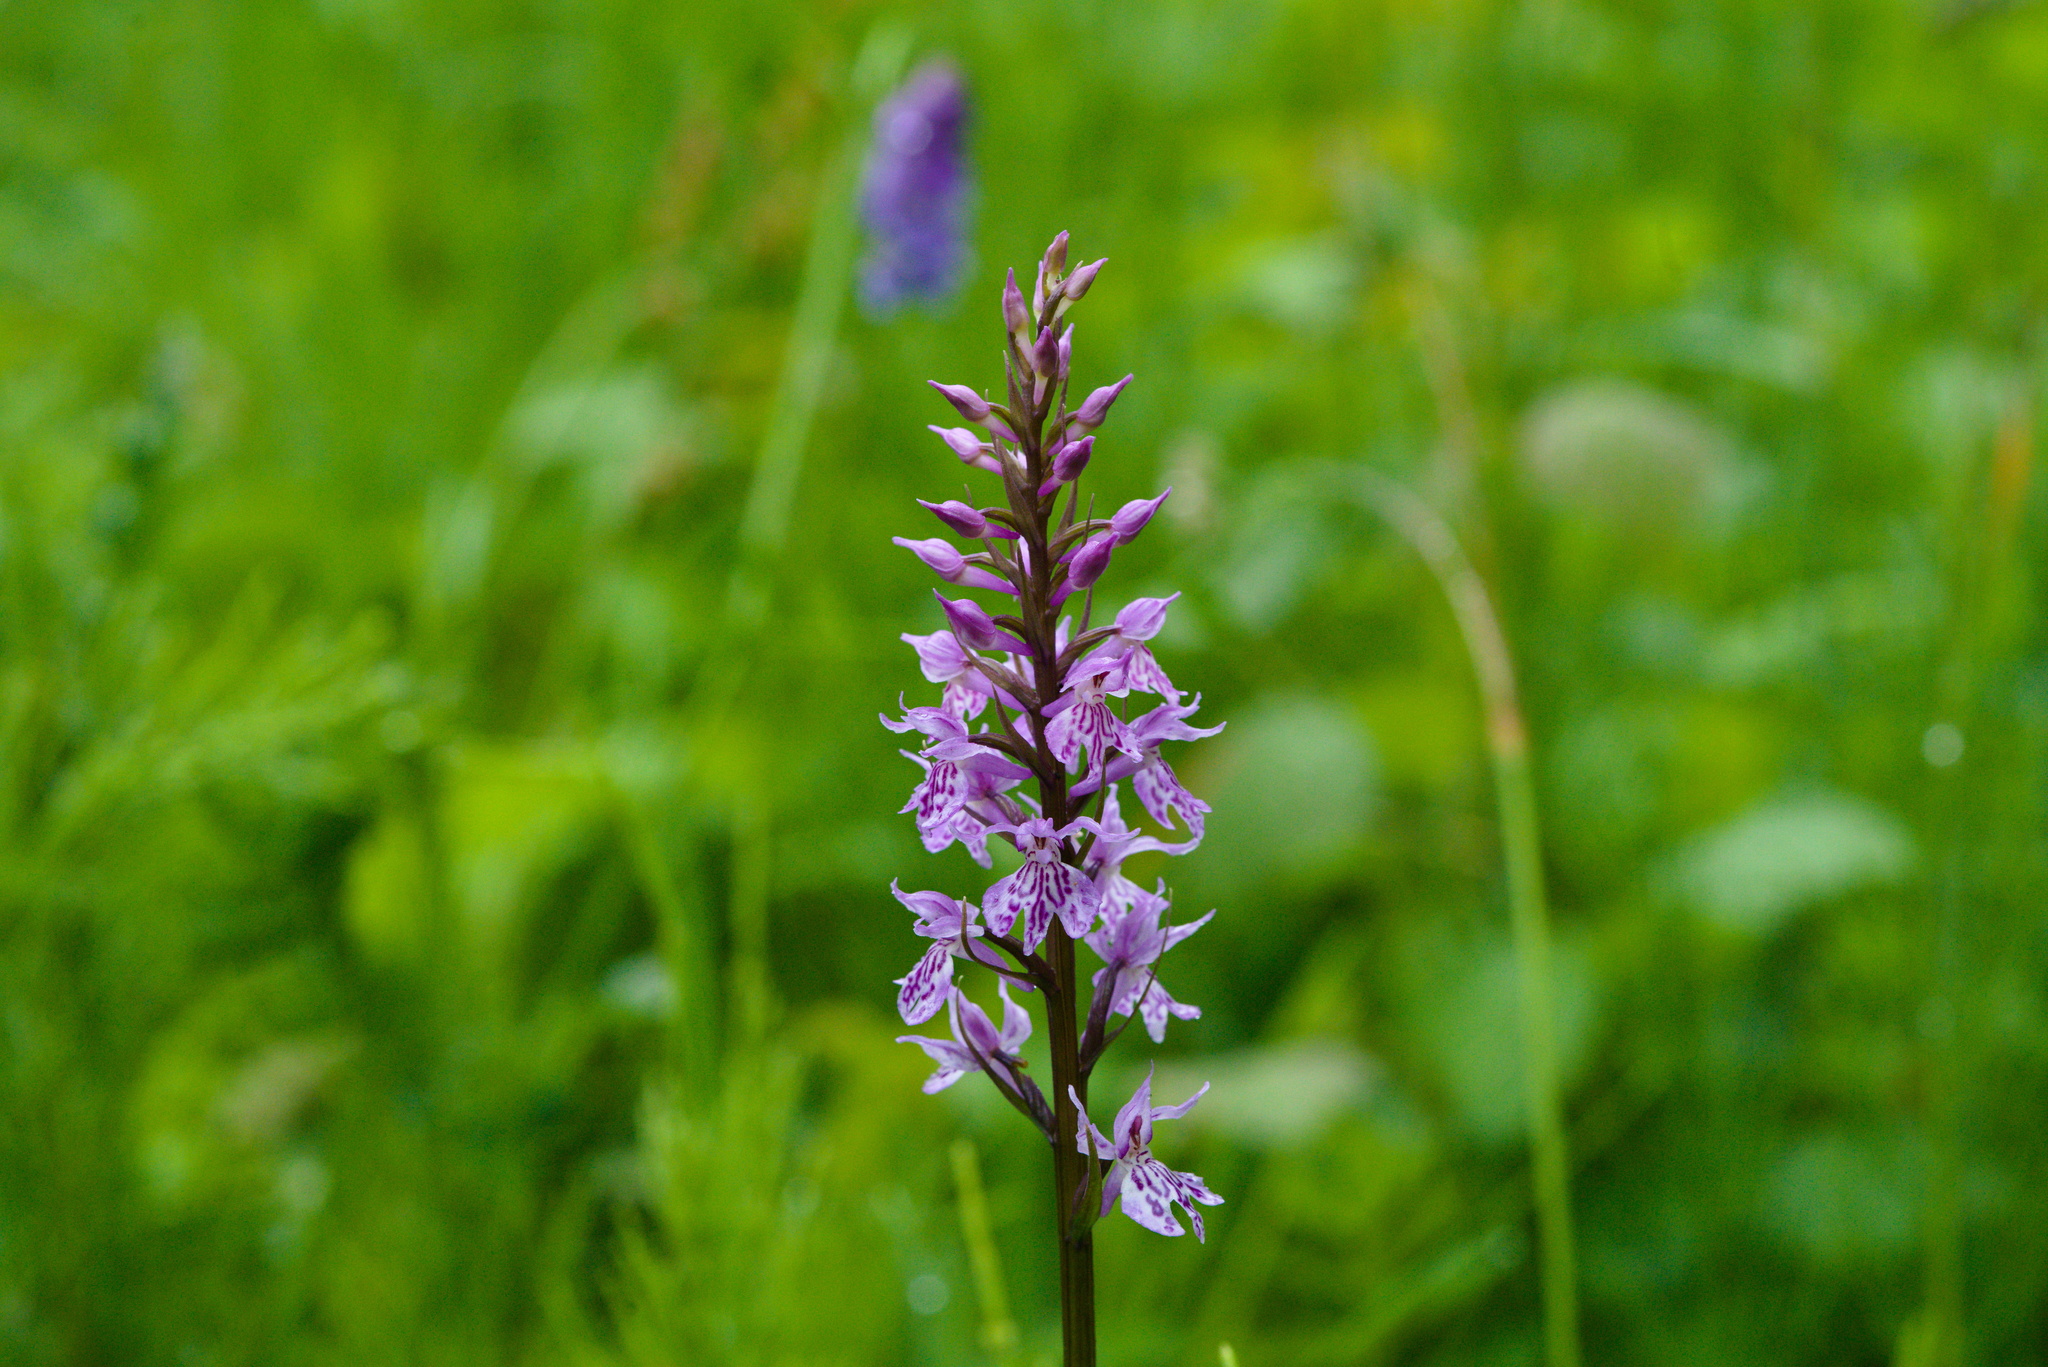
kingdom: Plantae
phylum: Tracheophyta
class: Liliopsida
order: Asparagales
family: Orchidaceae
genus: Dactylorhiza
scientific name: Dactylorhiza maculata
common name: Heath spotted-orchid
